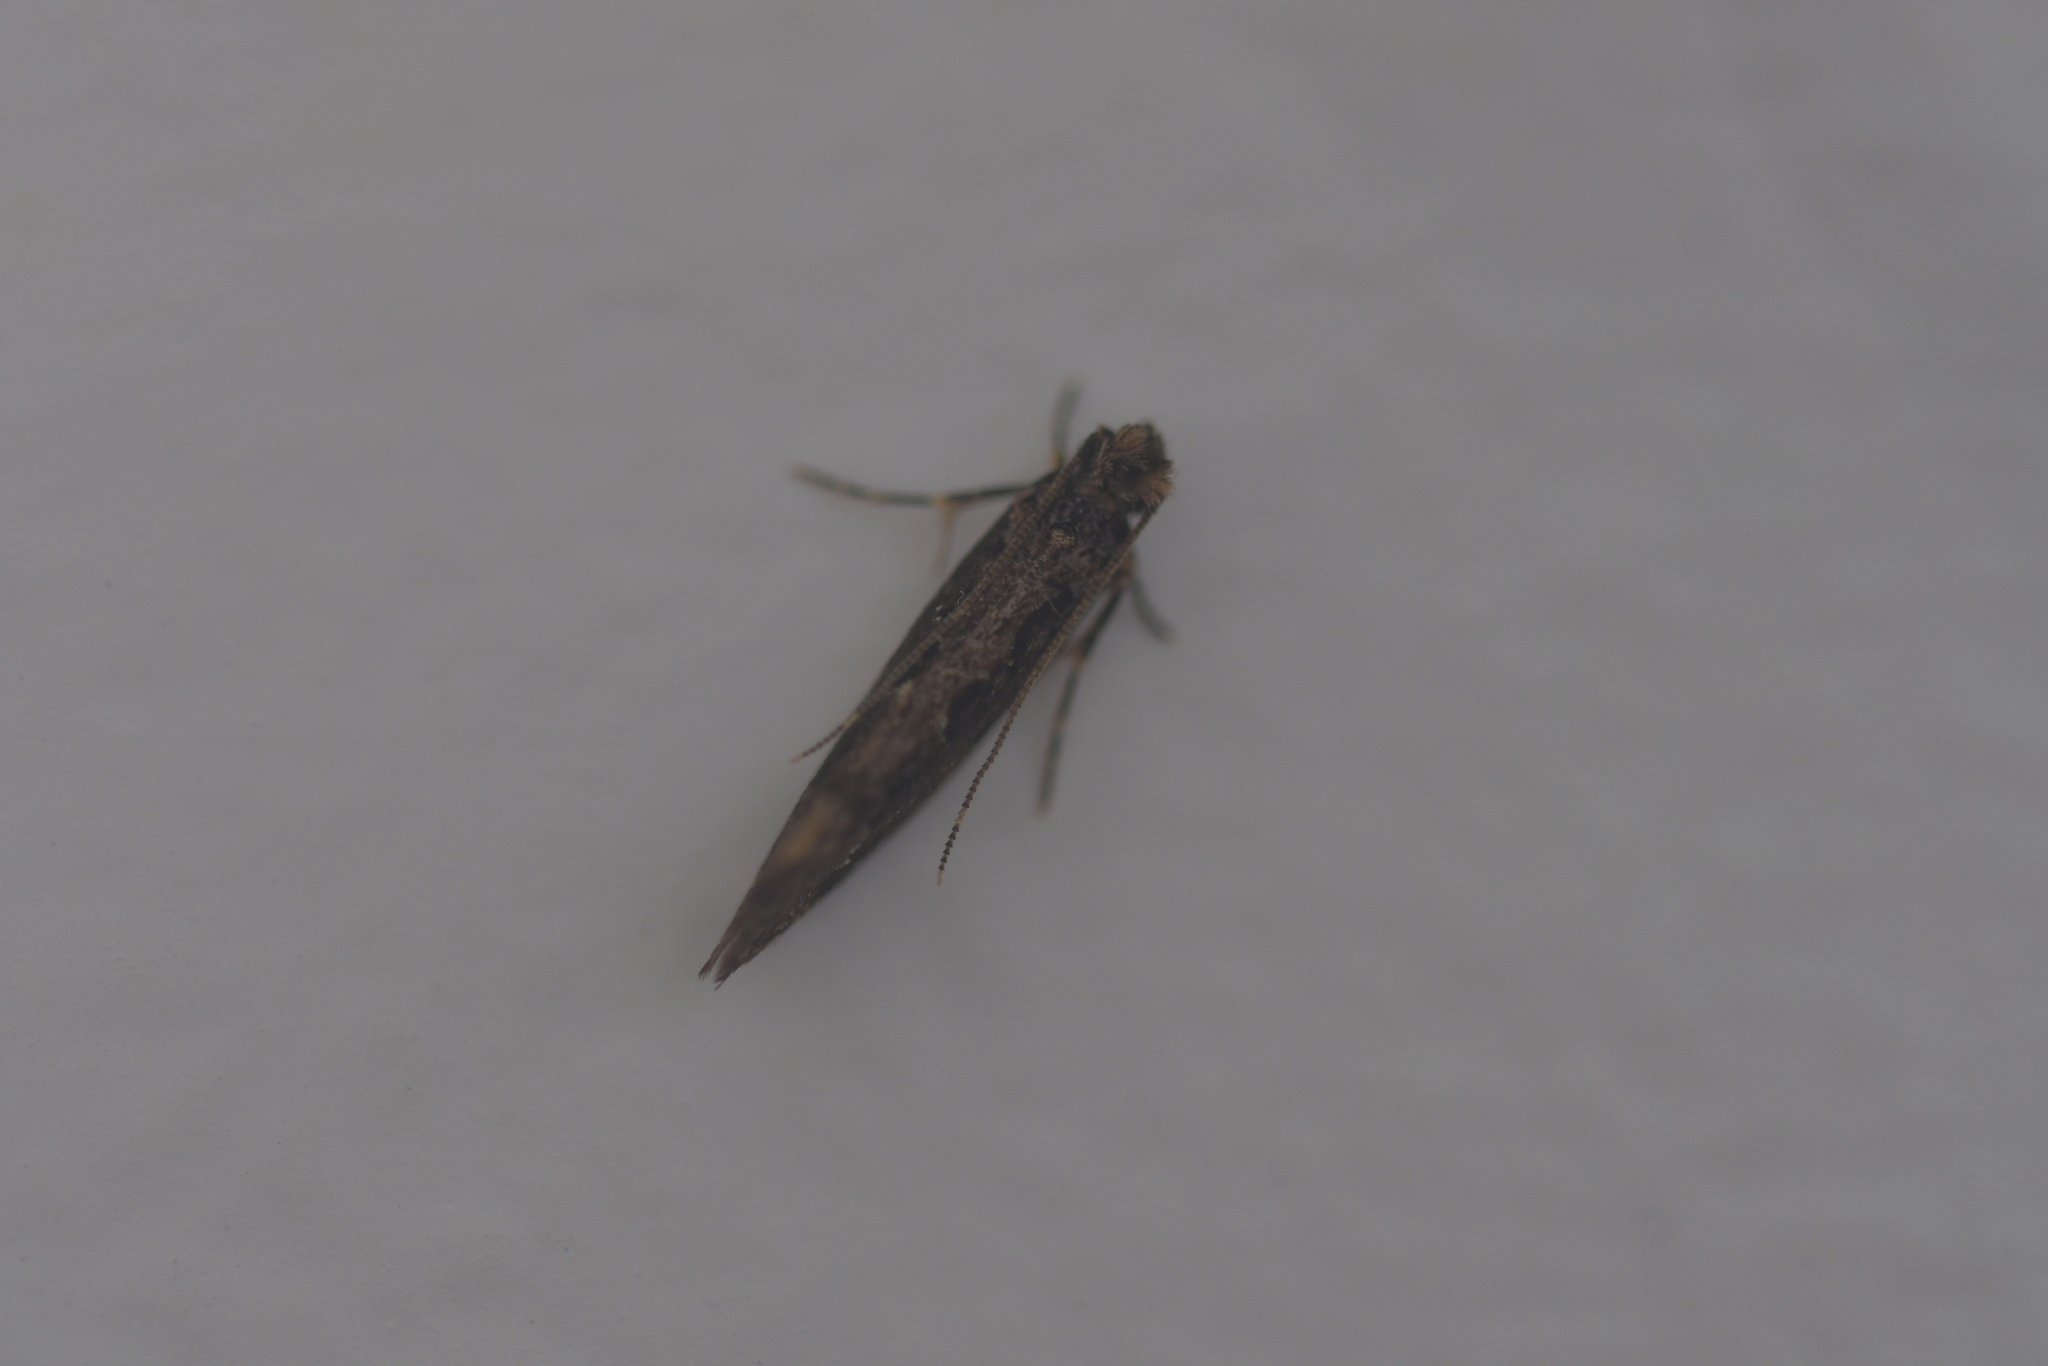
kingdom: Animalia
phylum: Arthropoda
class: Insecta
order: Lepidoptera
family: Tineidae
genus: Erechthias
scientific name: Erechthias capnitis
